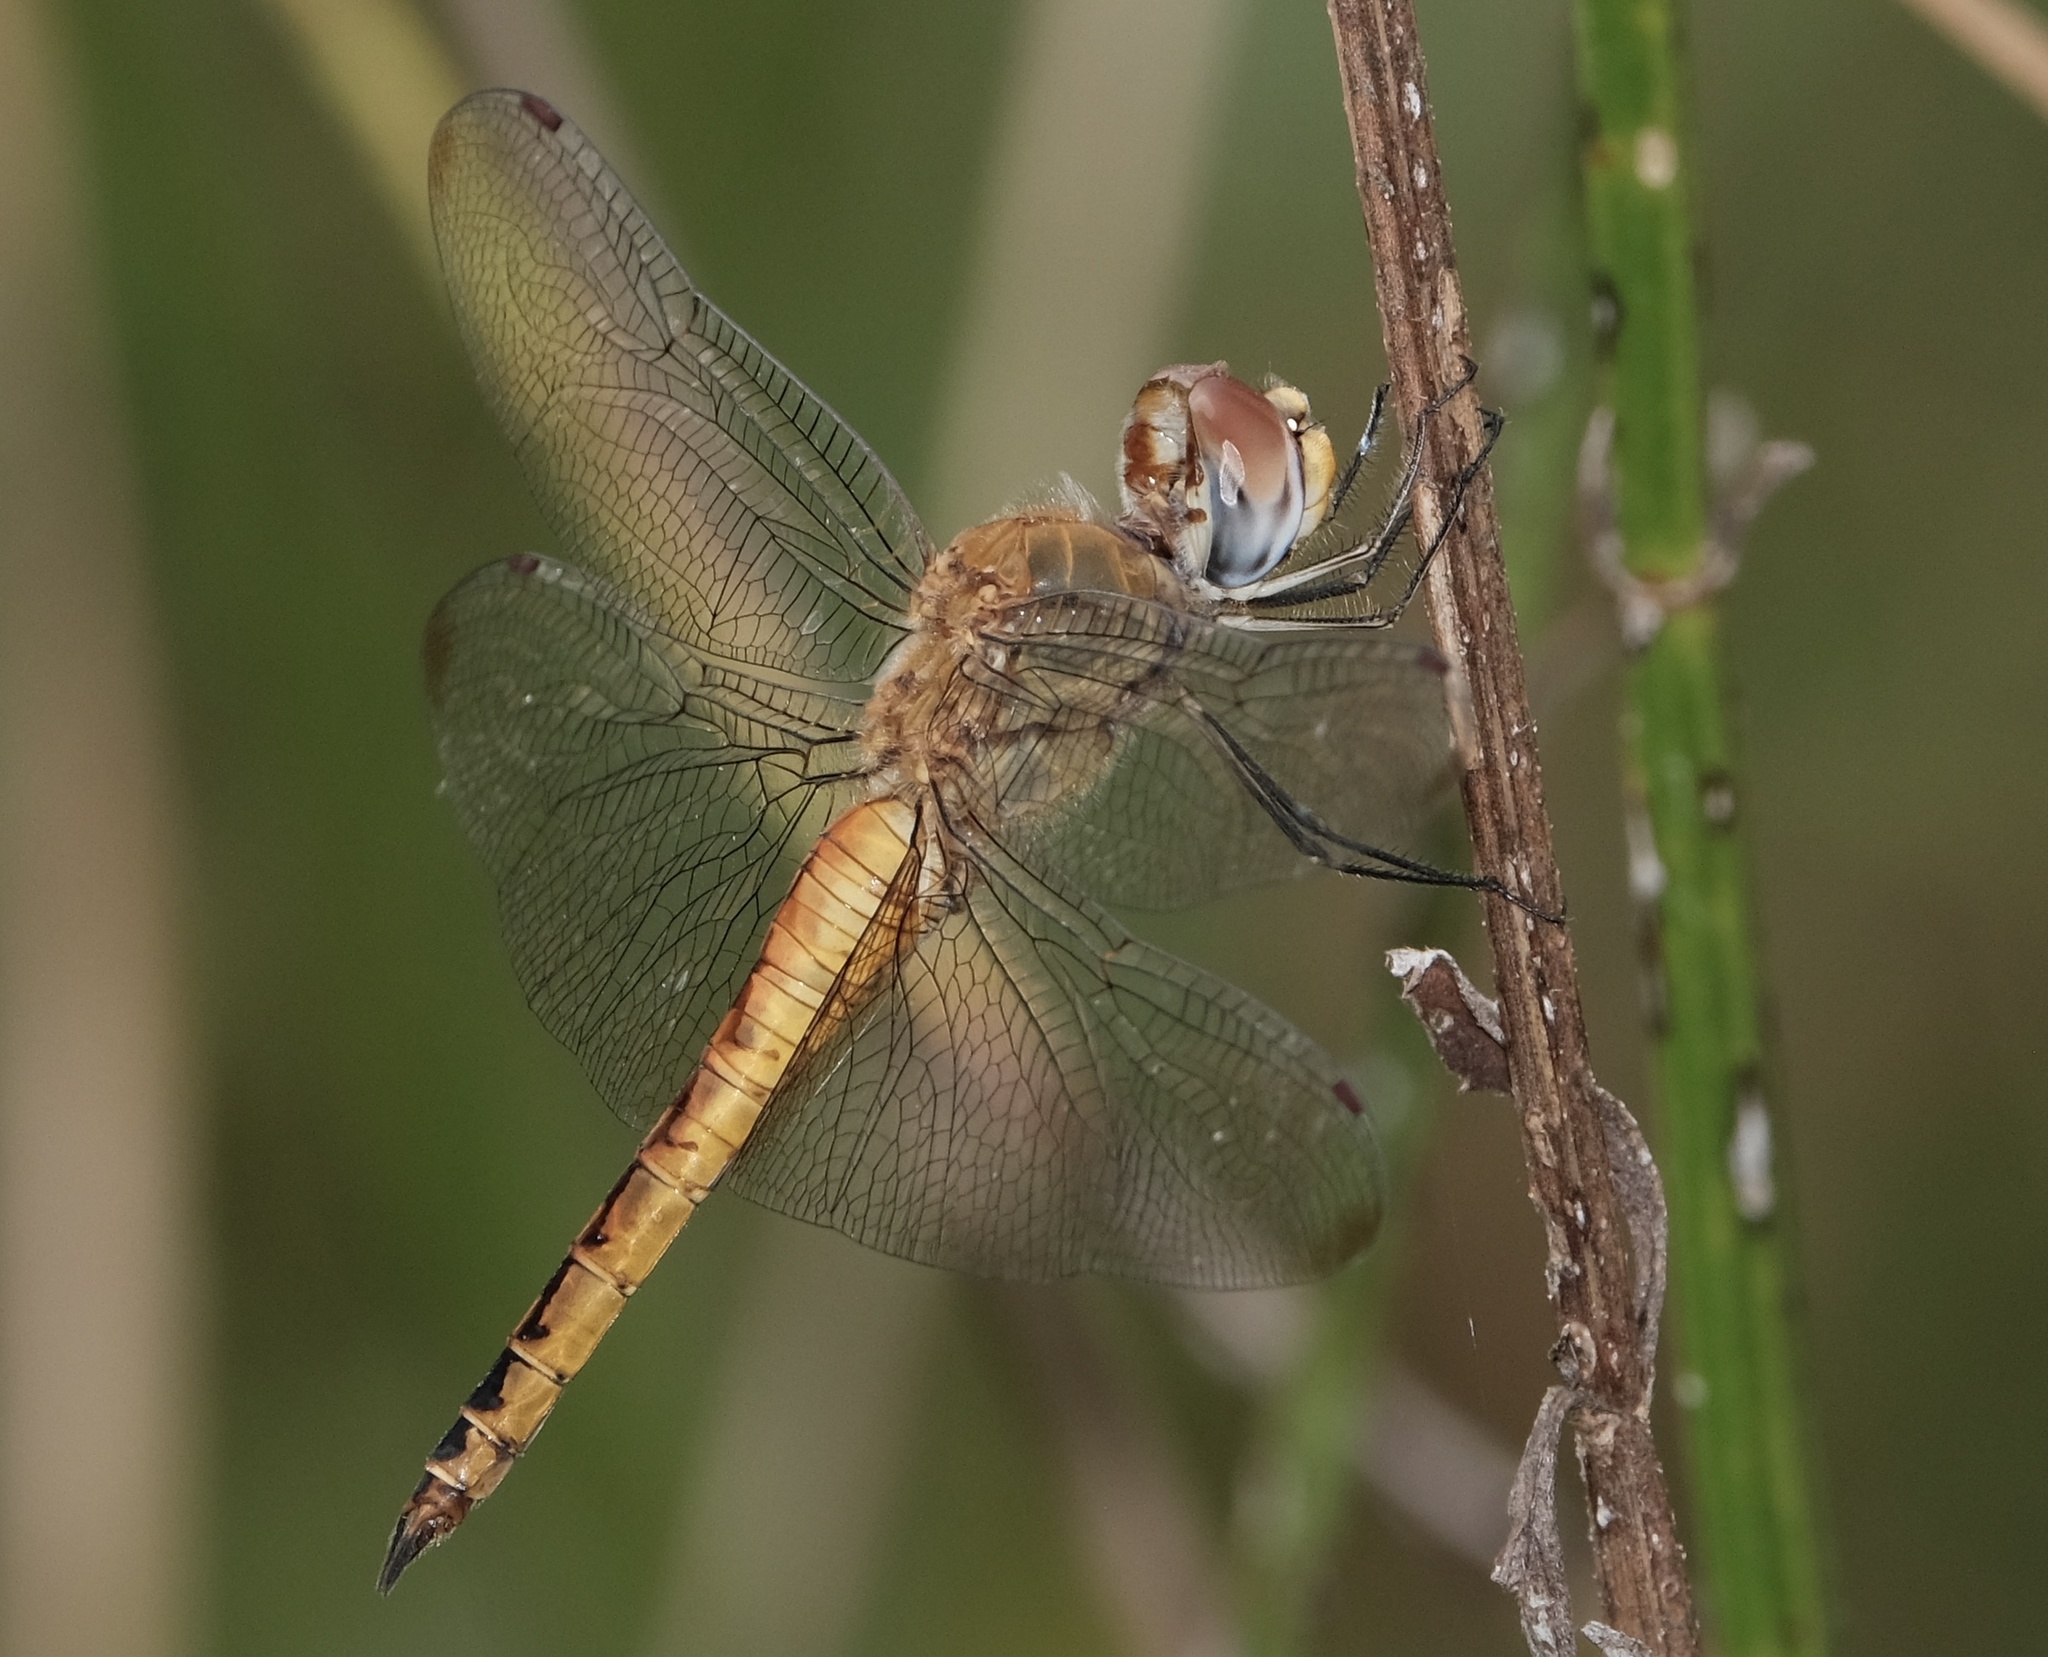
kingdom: Animalia
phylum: Arthropoda
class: Insecta
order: Odonata
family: Libellulidae
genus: Pantala
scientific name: Pantala flavescens
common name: Wandering glider
